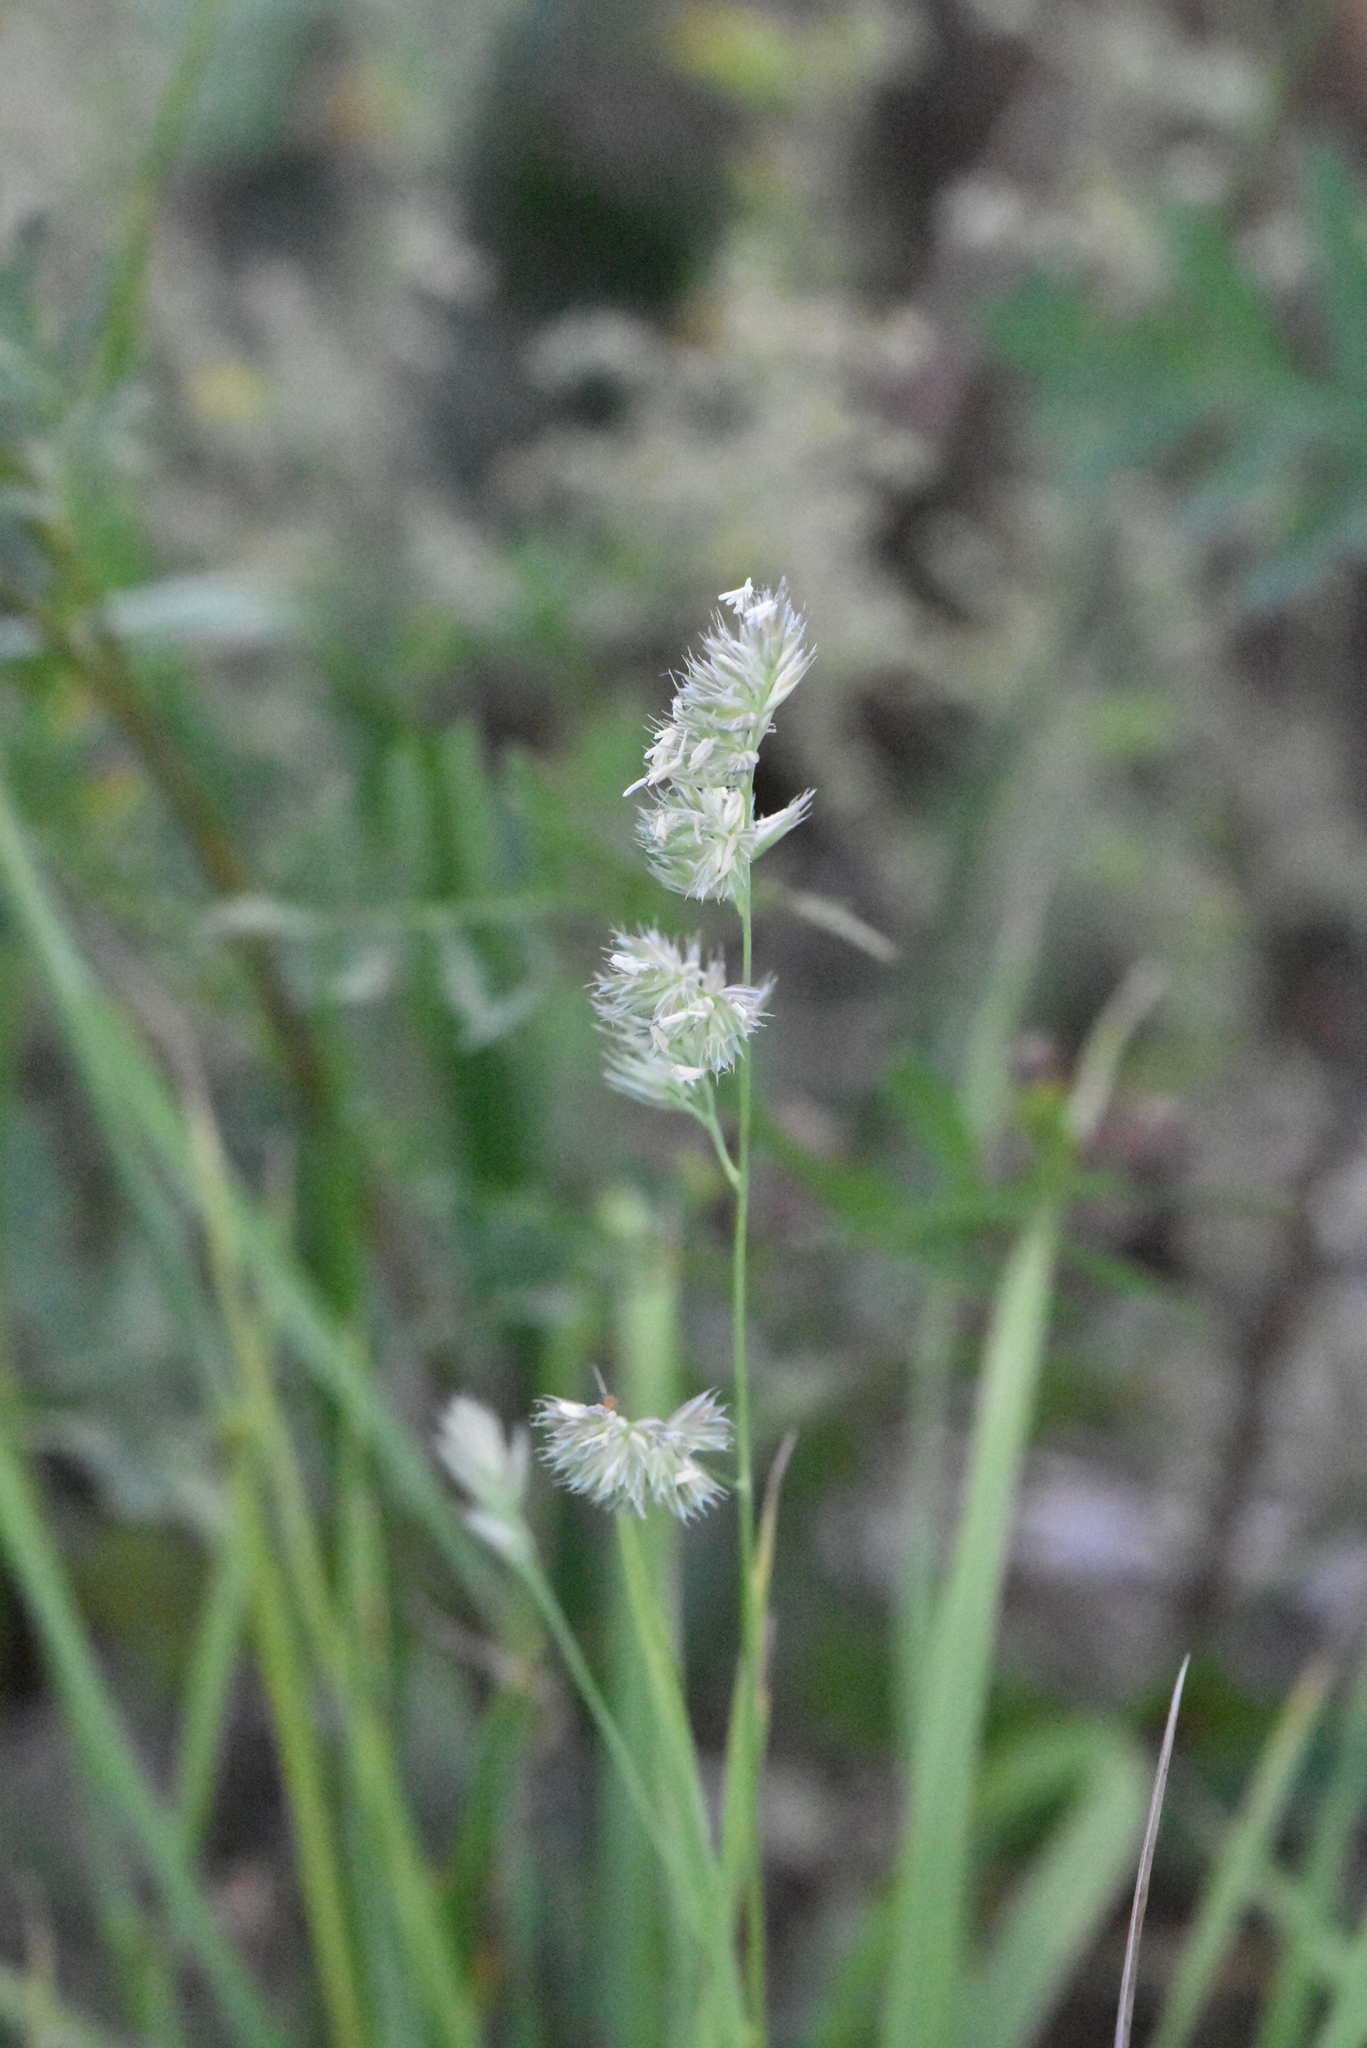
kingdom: Plantae
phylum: Tracheophyta
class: Liliopsida
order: Poales
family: Poaceae
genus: Dactylis
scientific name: Dactylis glomerata
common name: Orchardgrass
